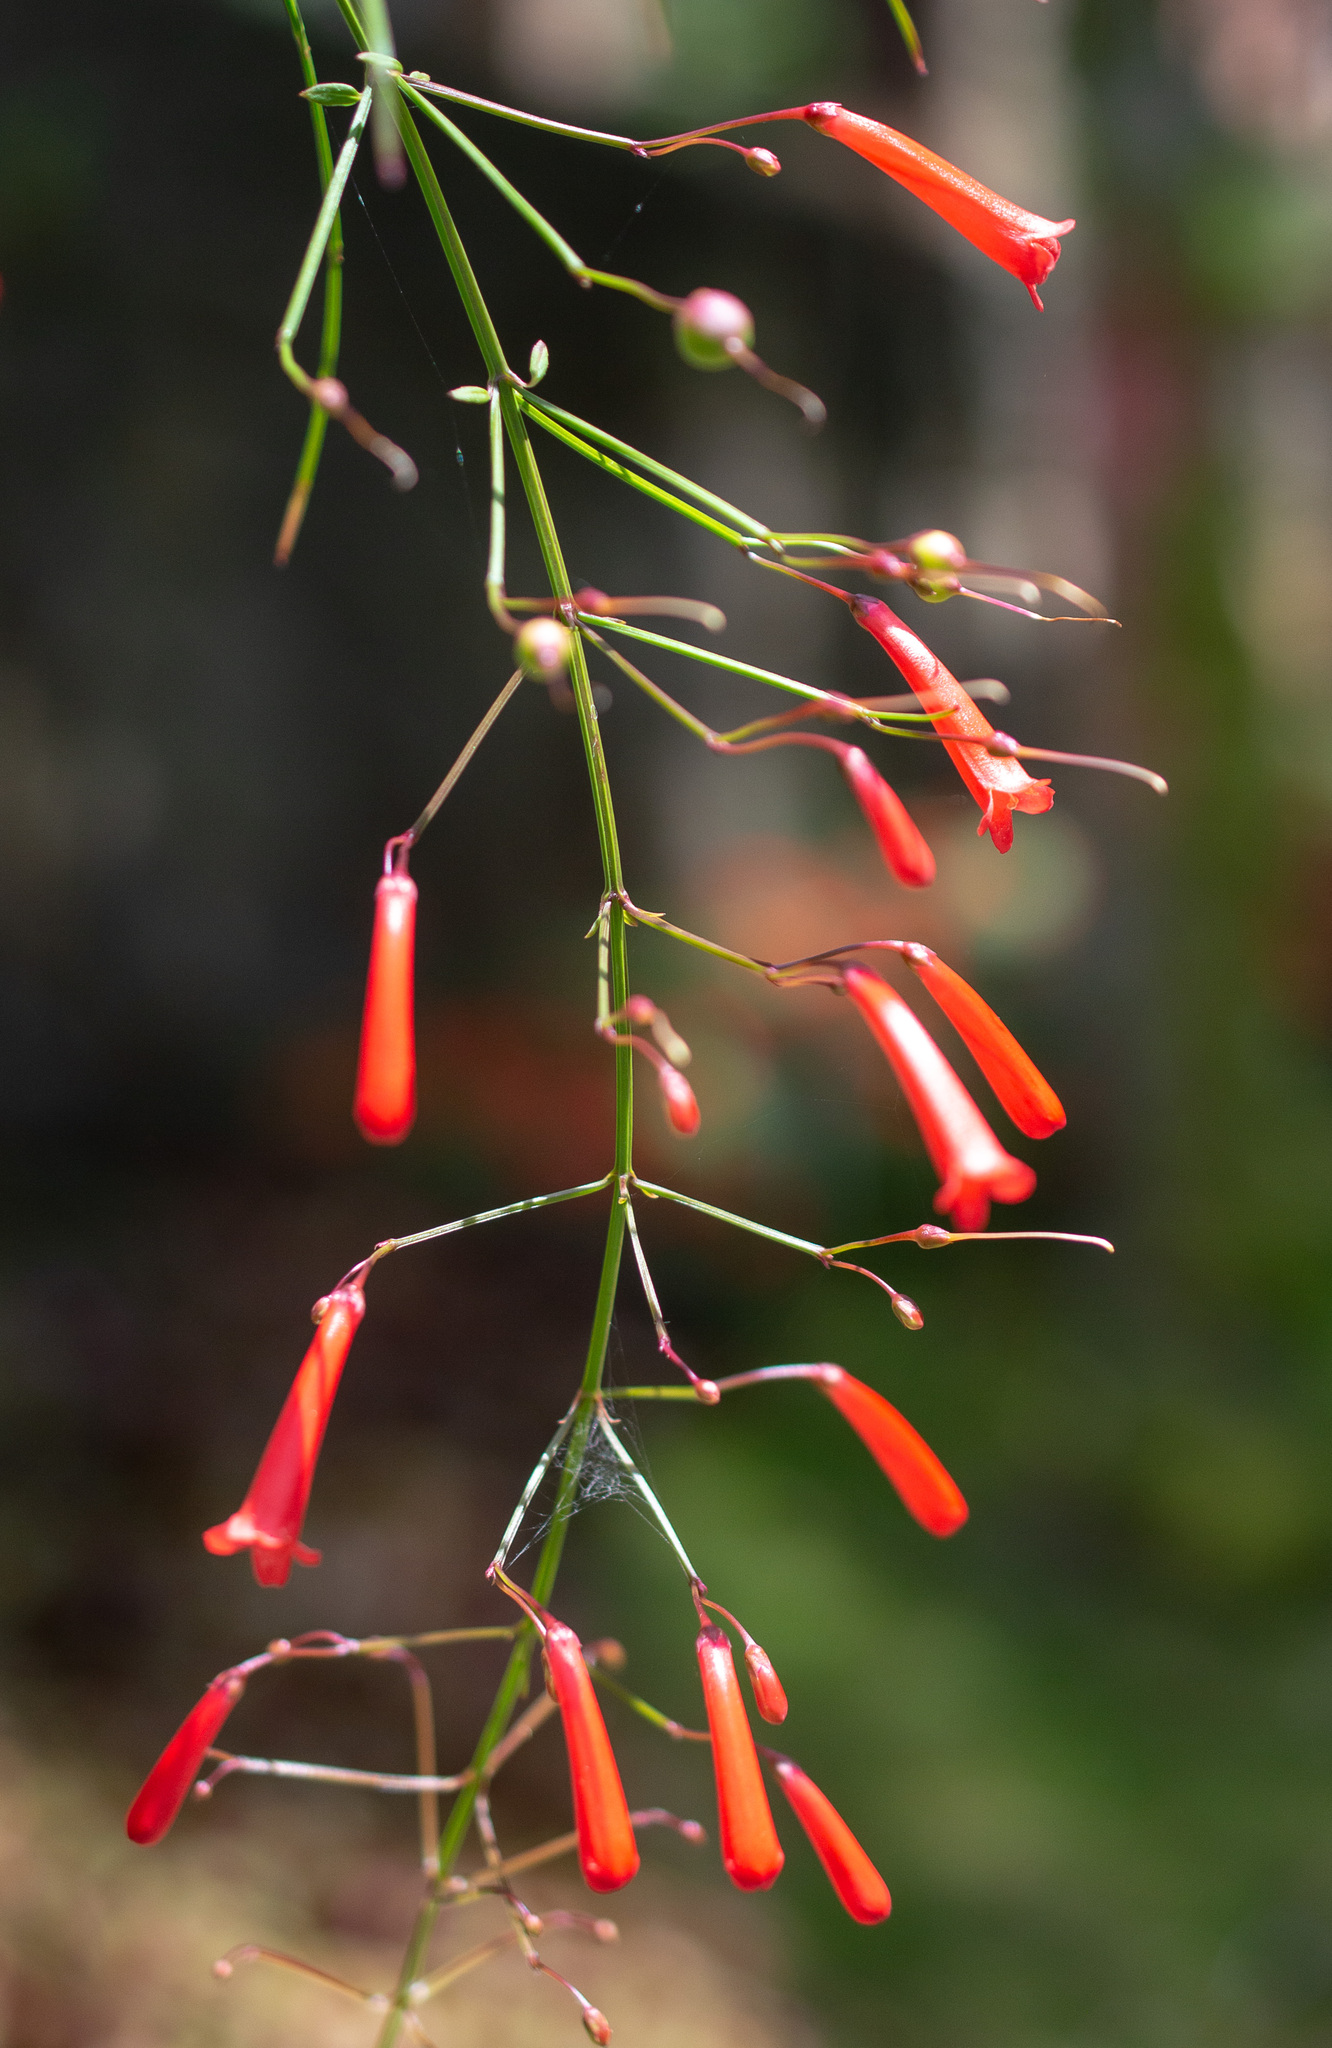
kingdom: Plantae
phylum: Tracheophyta
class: Magnoliopsida
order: Lamiales
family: Plantaginaceae
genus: Russelia
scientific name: Russelia equisetiformis
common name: Fountainbush
